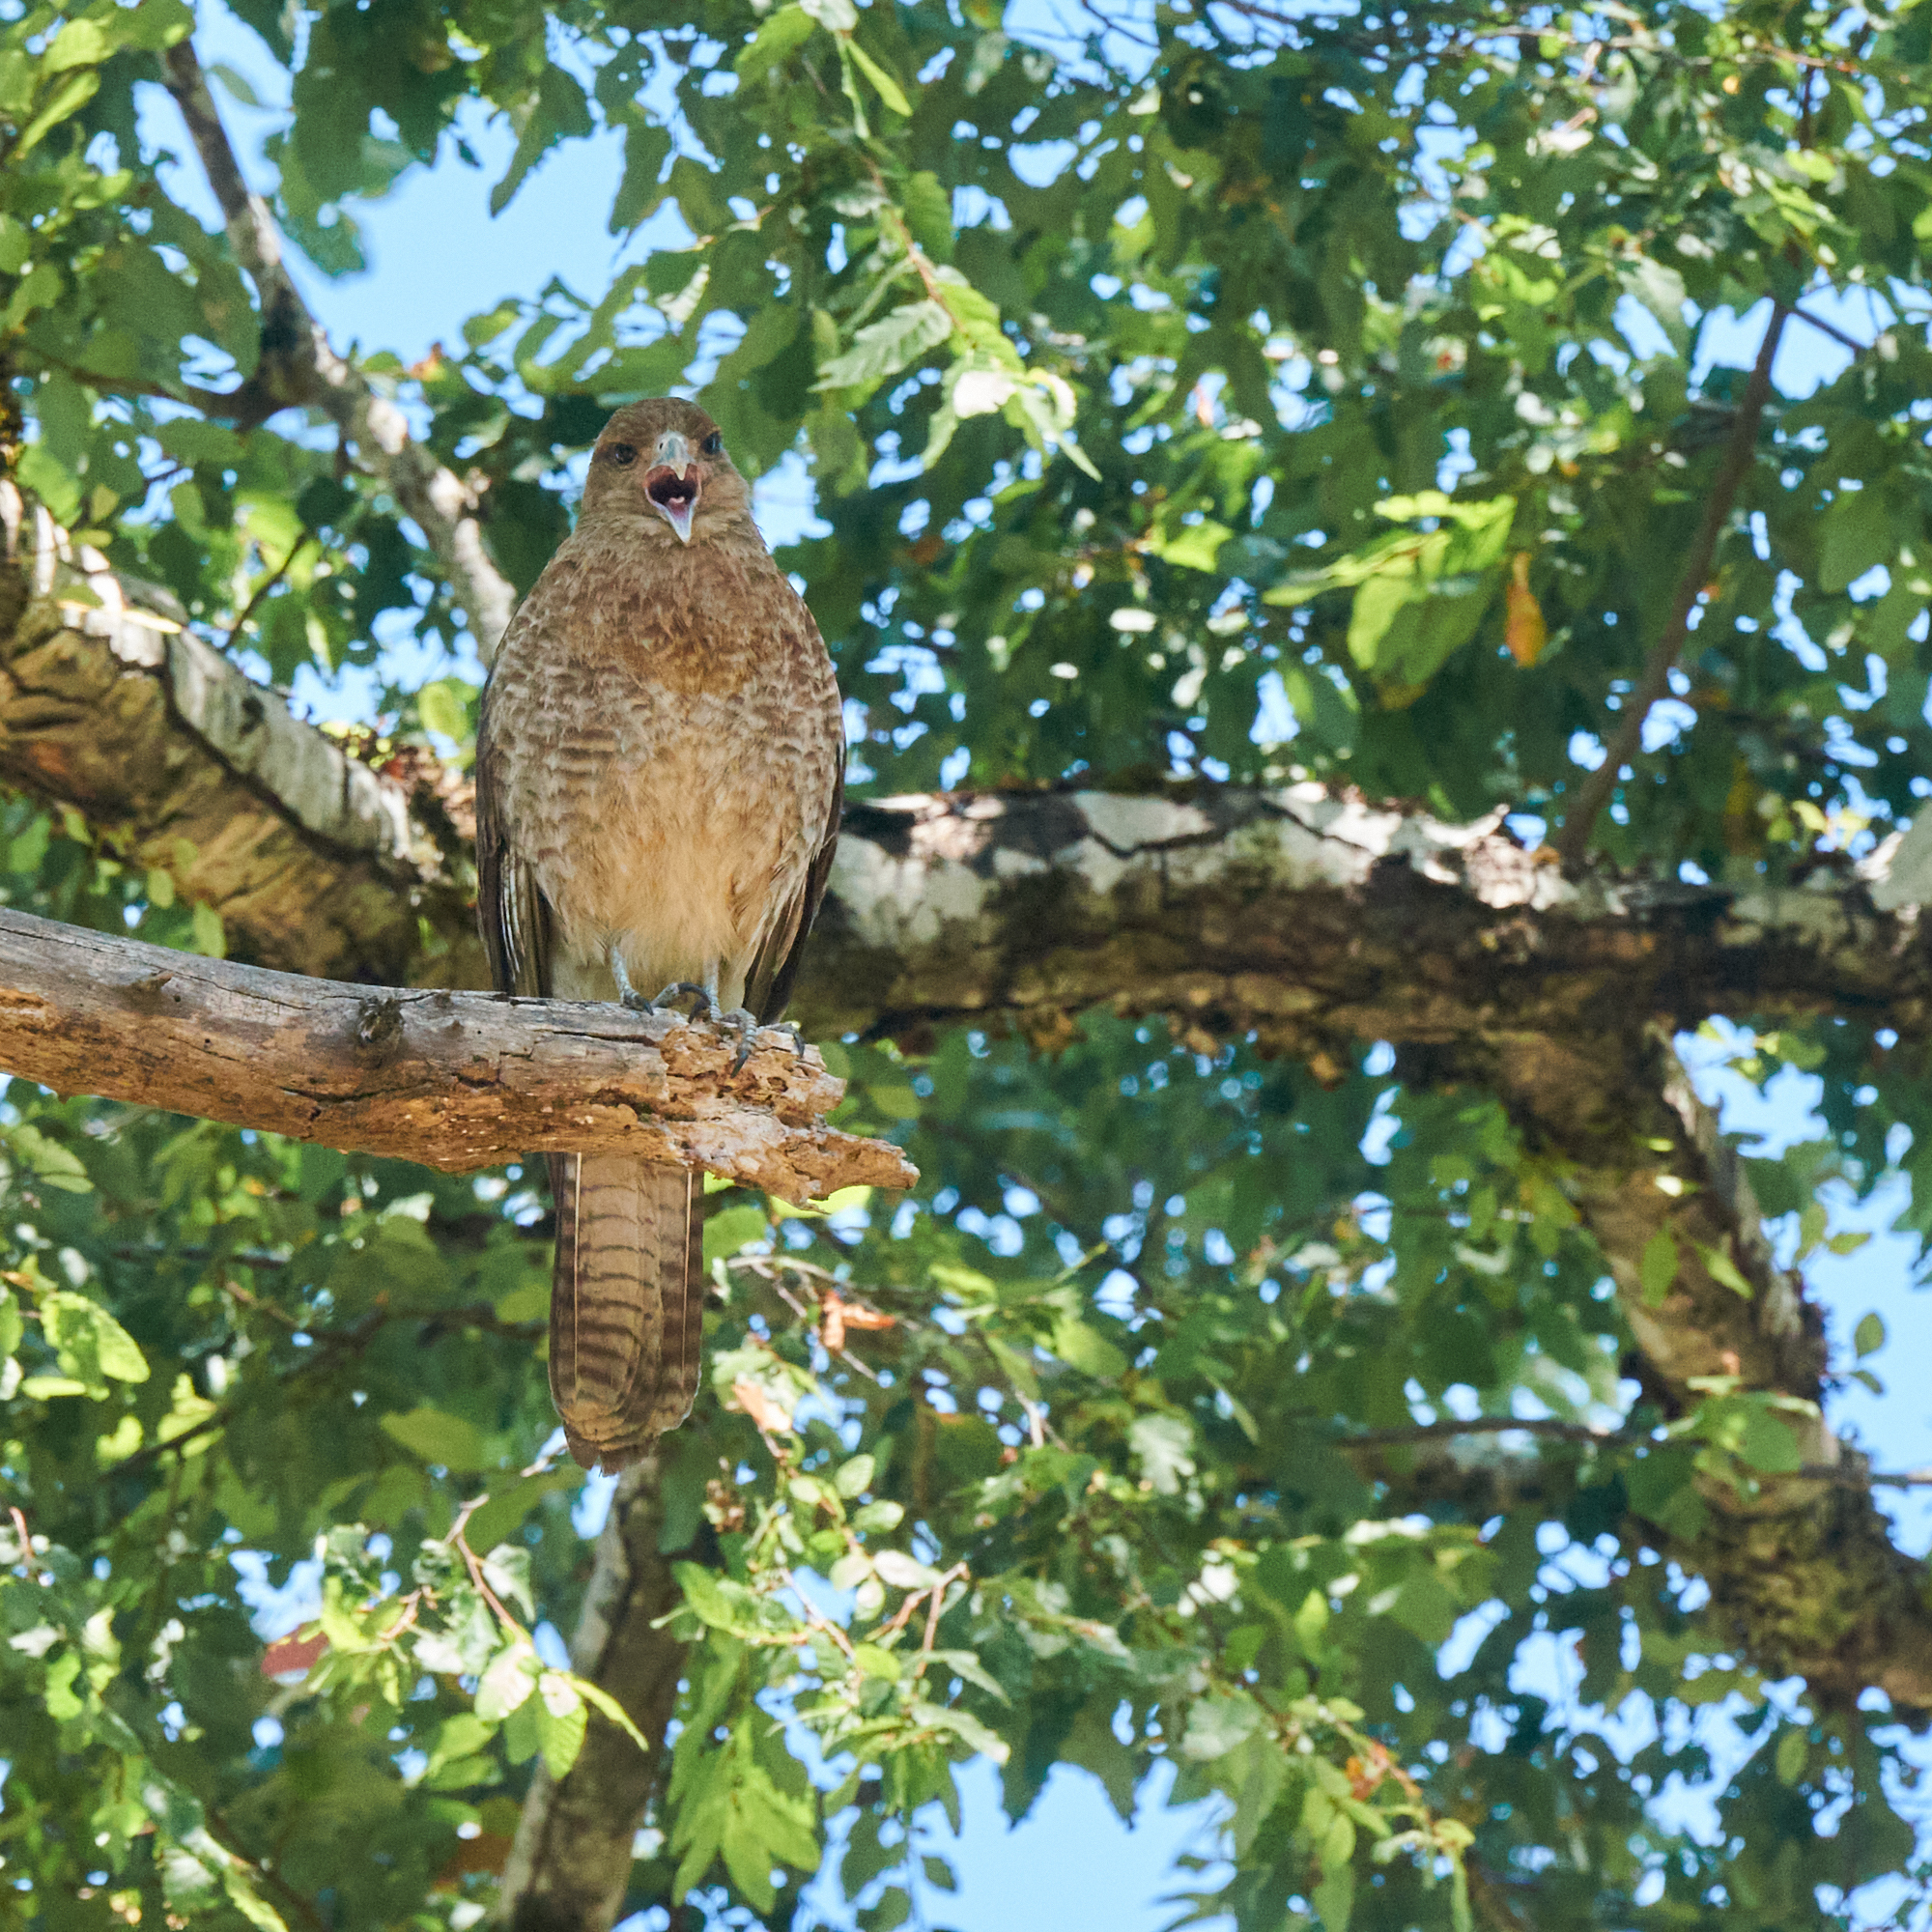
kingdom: Animalia
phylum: Chordata
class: Aves
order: Falconiformes
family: Falconidae
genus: Daptrius
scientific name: Daptrius
